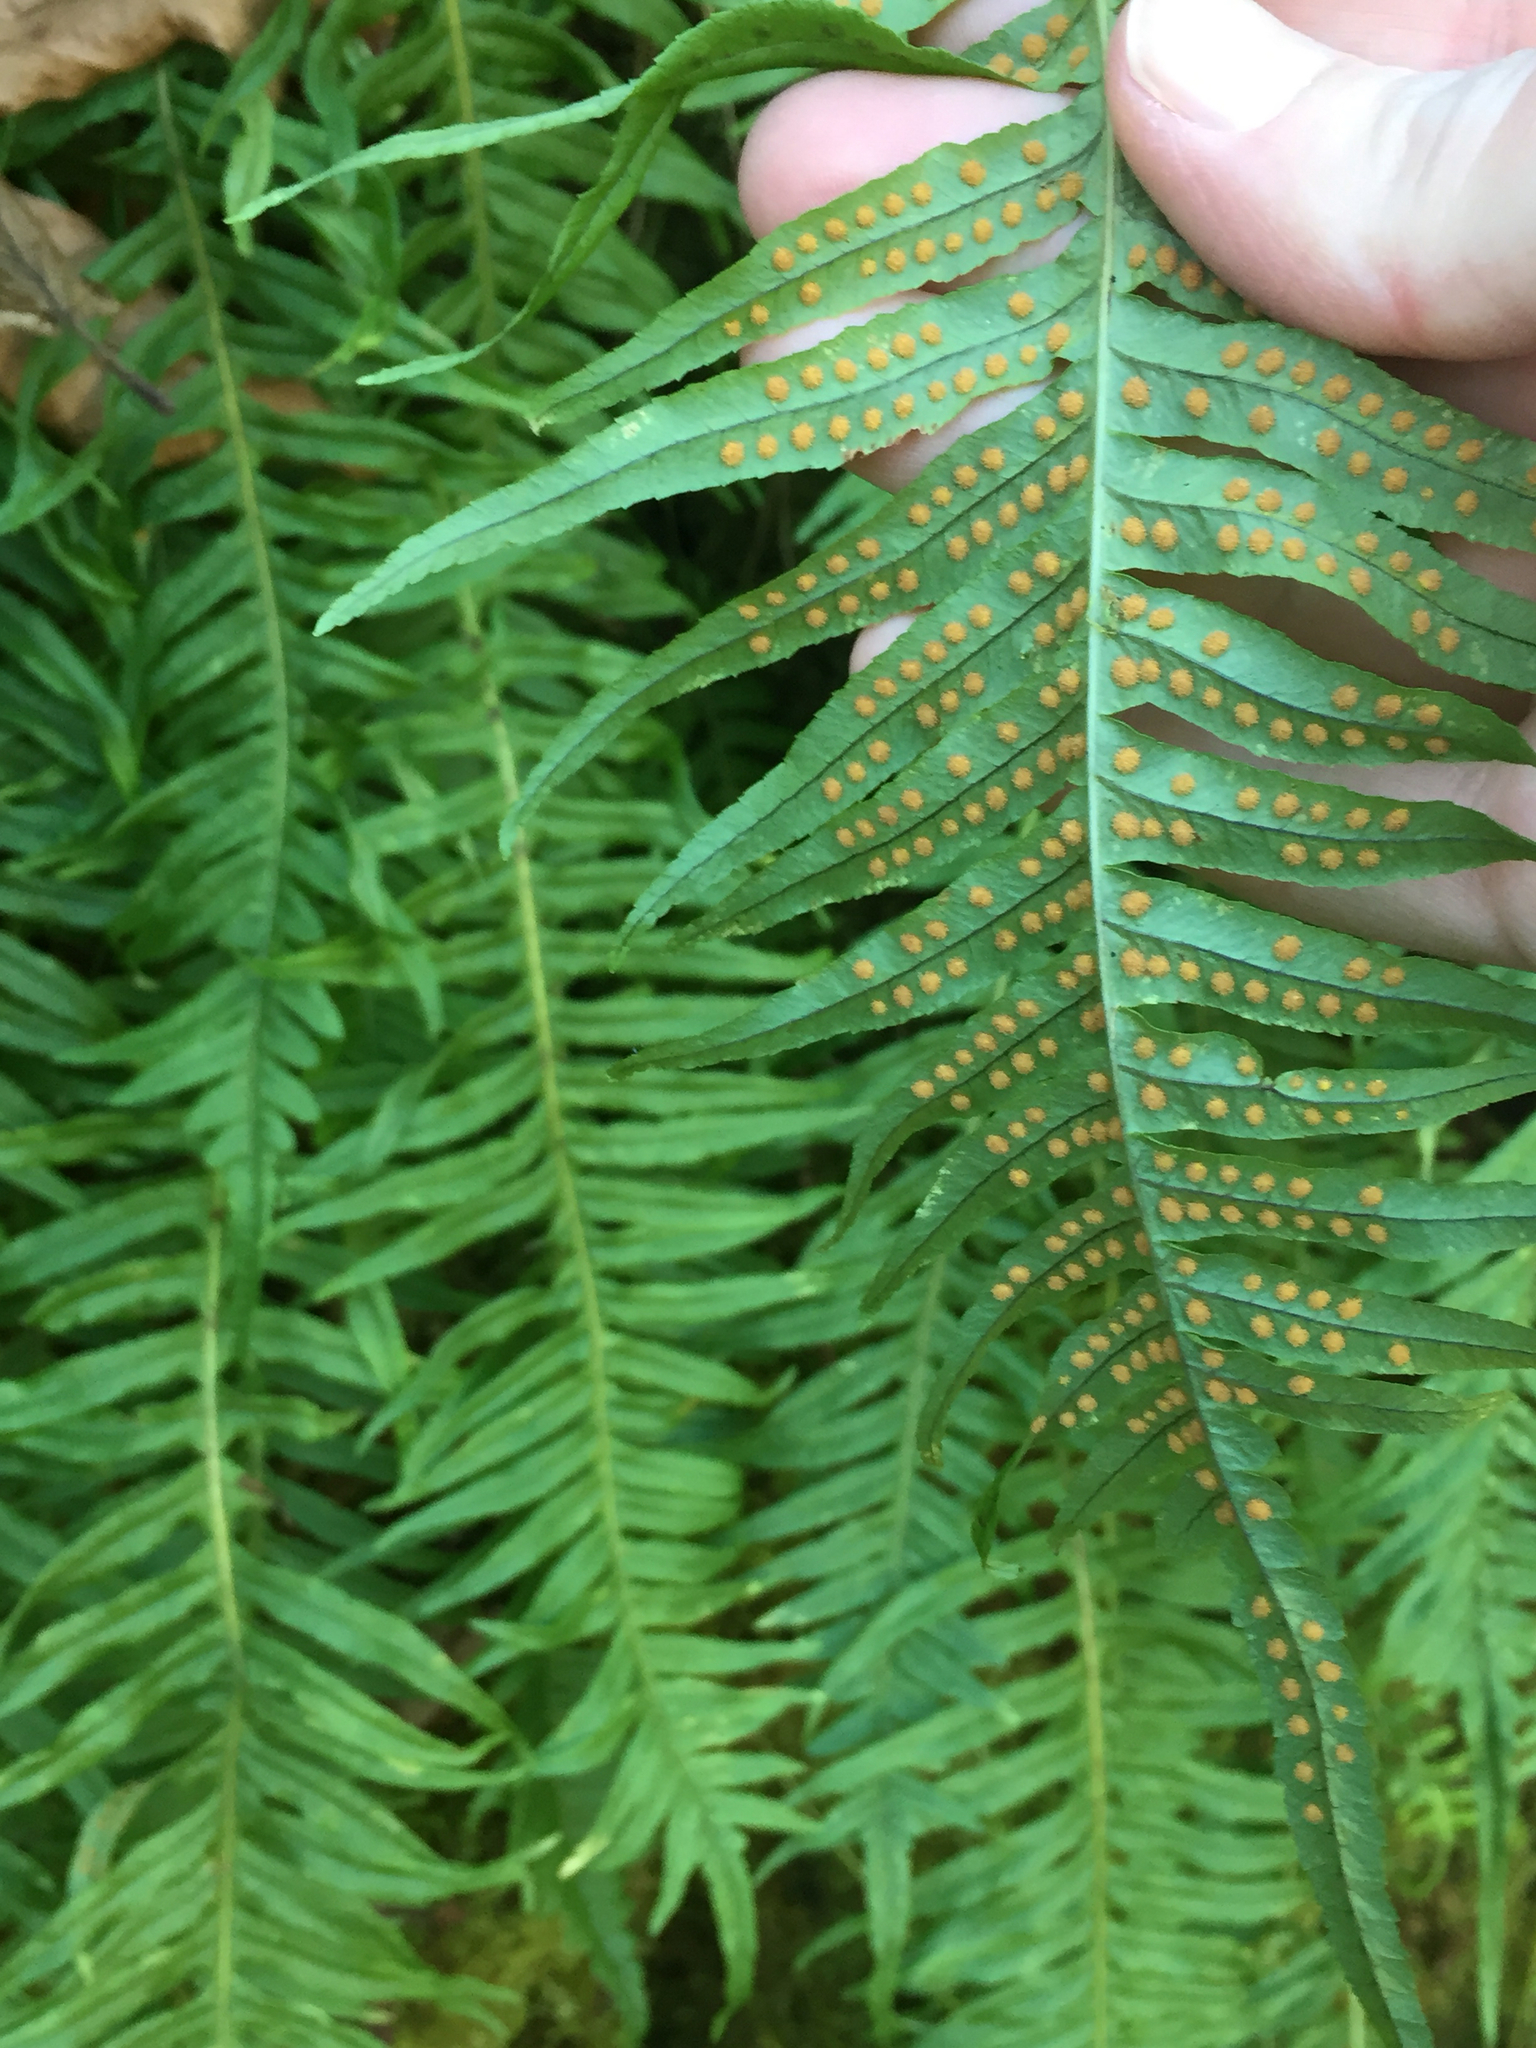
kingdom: Plantae
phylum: Tracheophyta
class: Polypodiopsida
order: Polypodiales
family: Polypodiaceae
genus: Polypodium
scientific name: Polypodium glycyrrhiza
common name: Licorice fern
